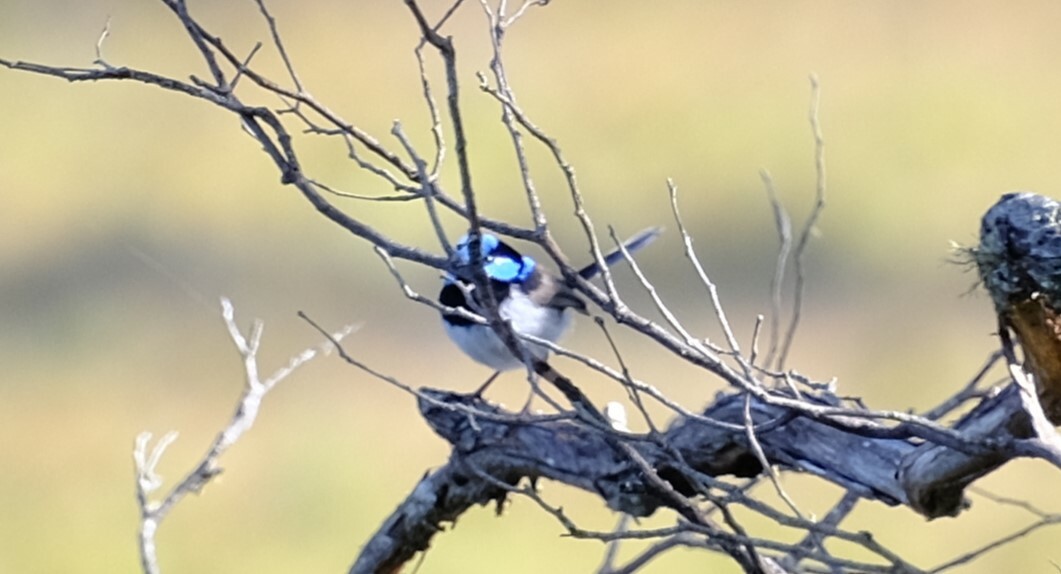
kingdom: Animalia
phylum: Chordata
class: Aves
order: Passeriformes
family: Maluridae
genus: Malurus
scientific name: Malurus cyaneus
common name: Superb fairywren
